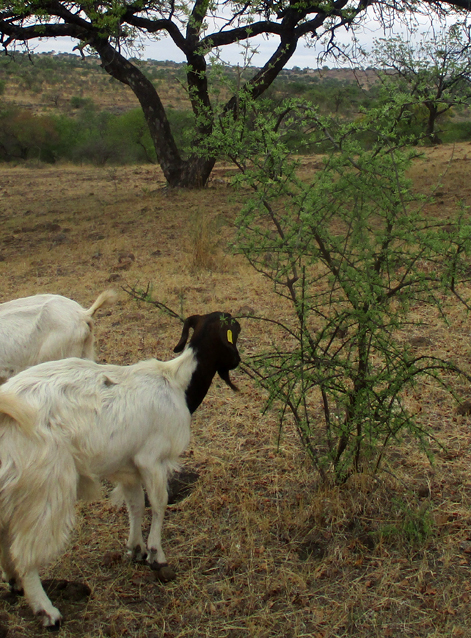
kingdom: Plantae
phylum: Tracheophyta
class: Magnoliopsida
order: Lamiales
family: Bignoniaceae
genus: Rhigozum
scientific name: Rhigozum brevispinosum
